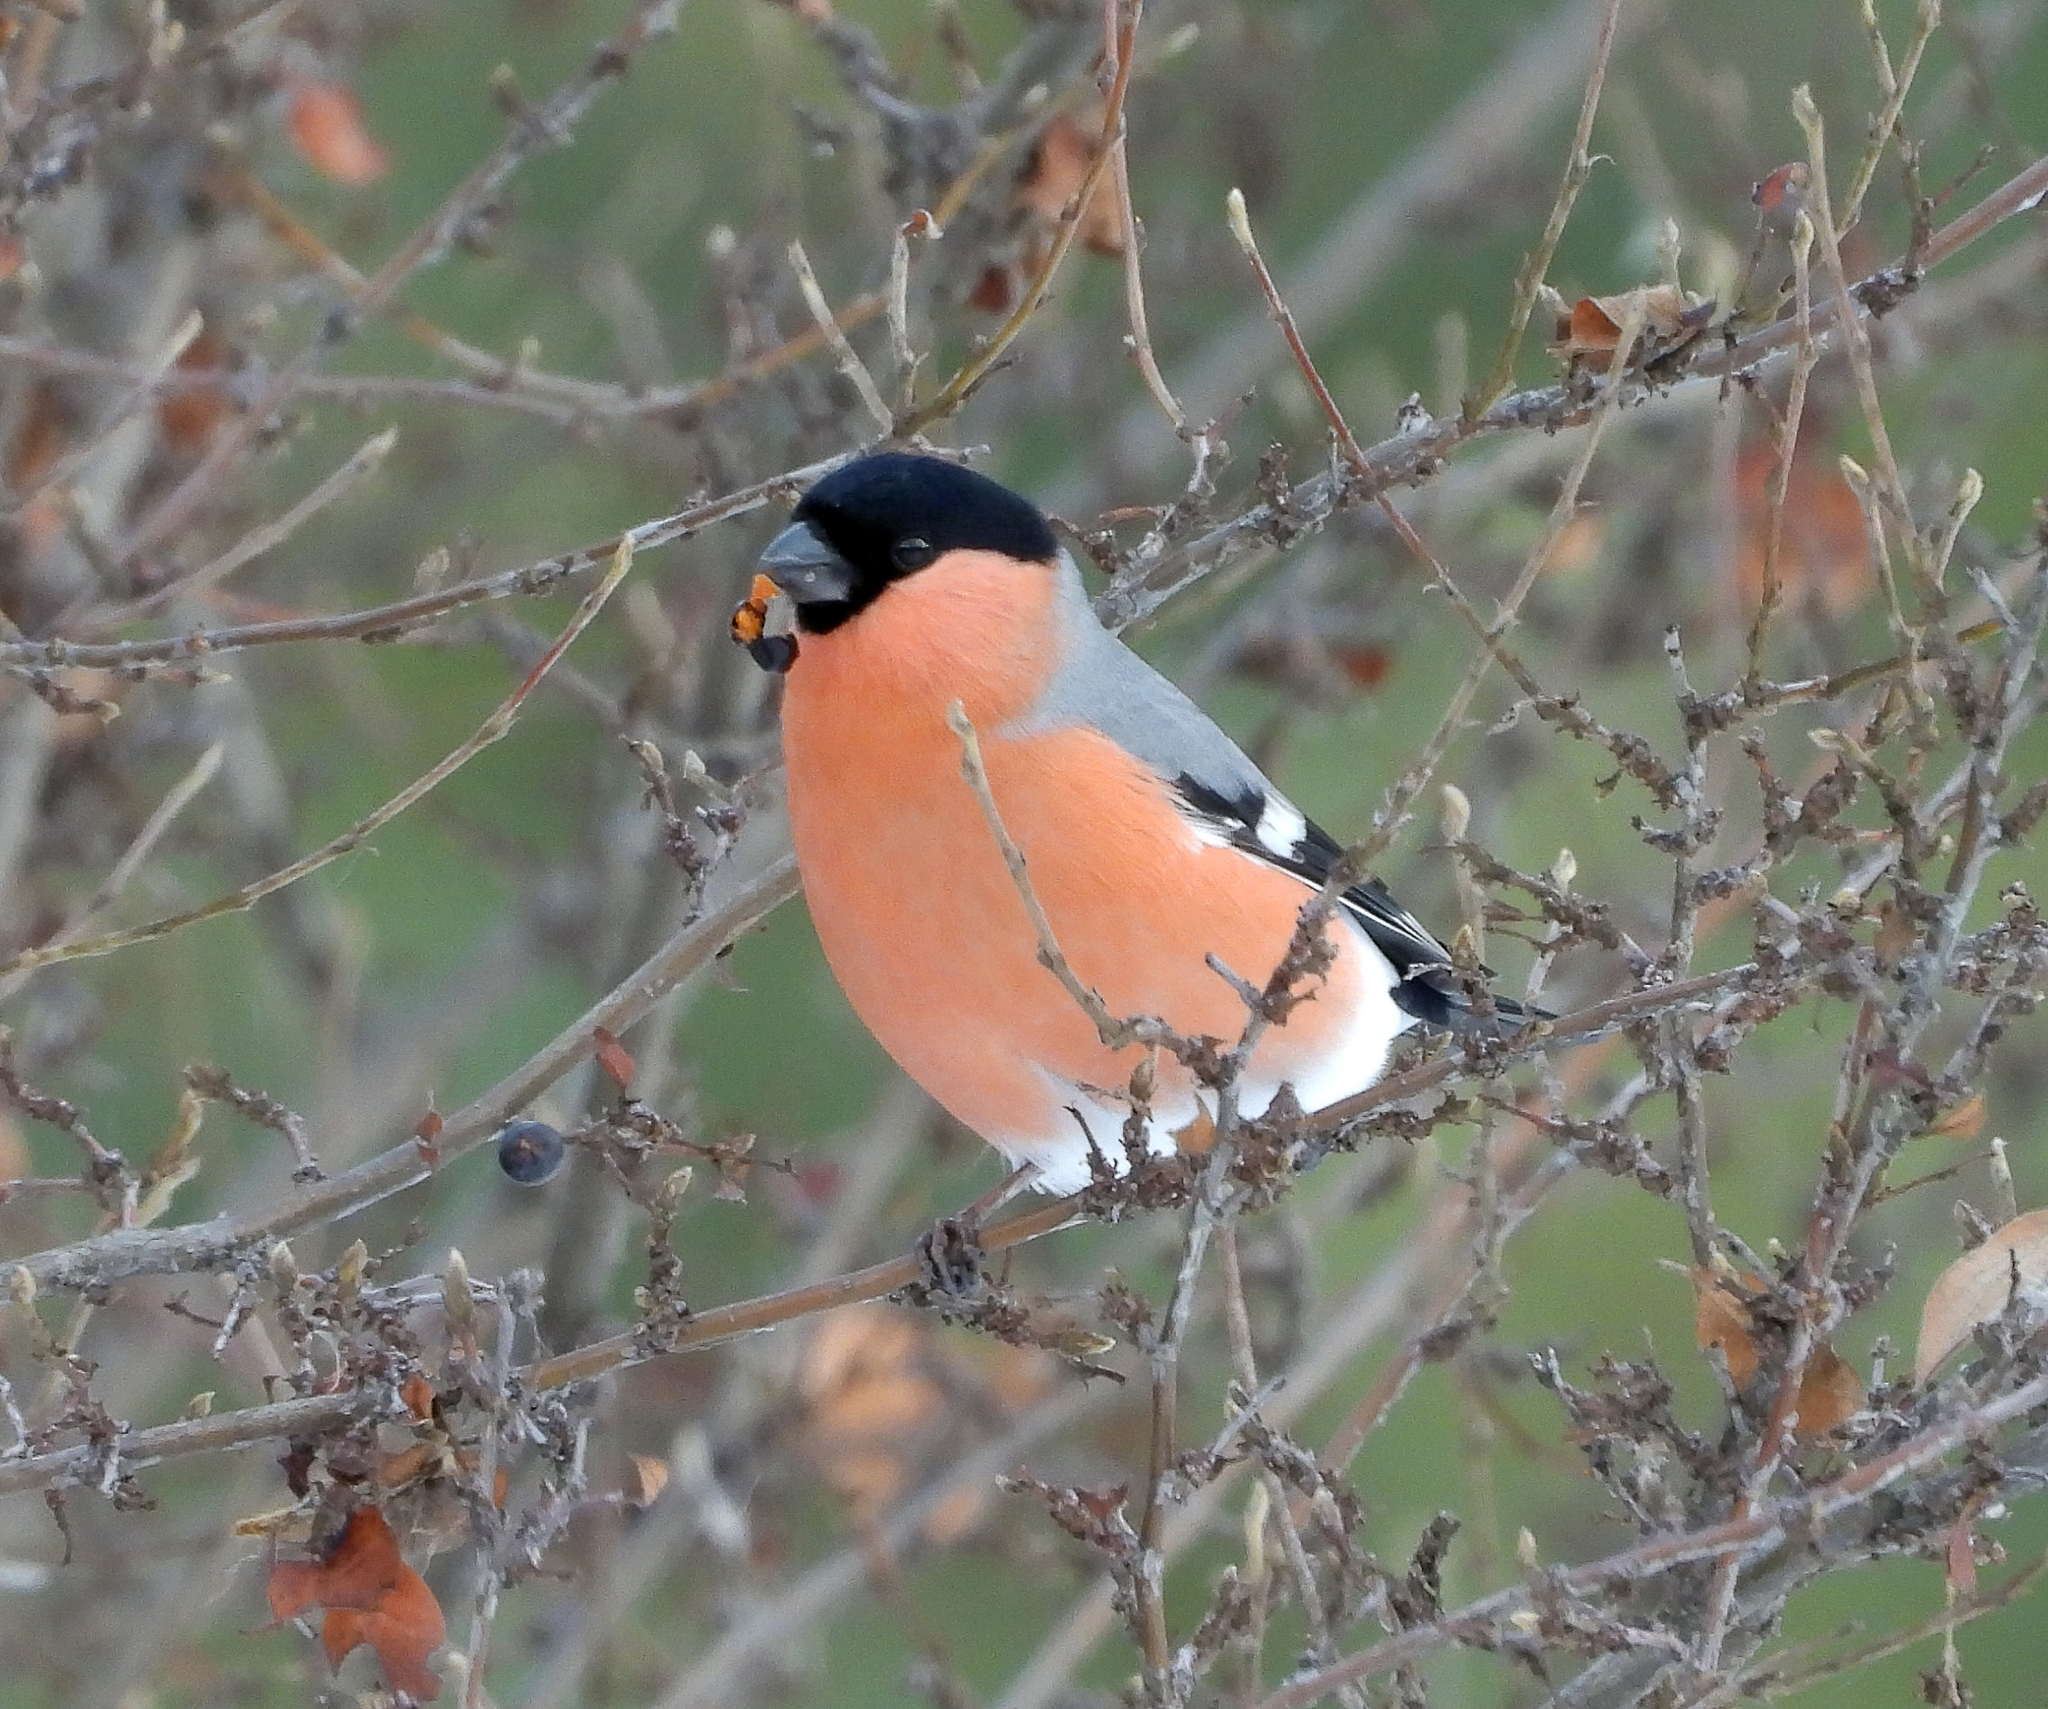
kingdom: Animalia
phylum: Chordata
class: Aves
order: Passeriformes
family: Fringillidae
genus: Pyrrhula
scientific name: Pyrrhula pyrrhula
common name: Eurasian bullfinch
